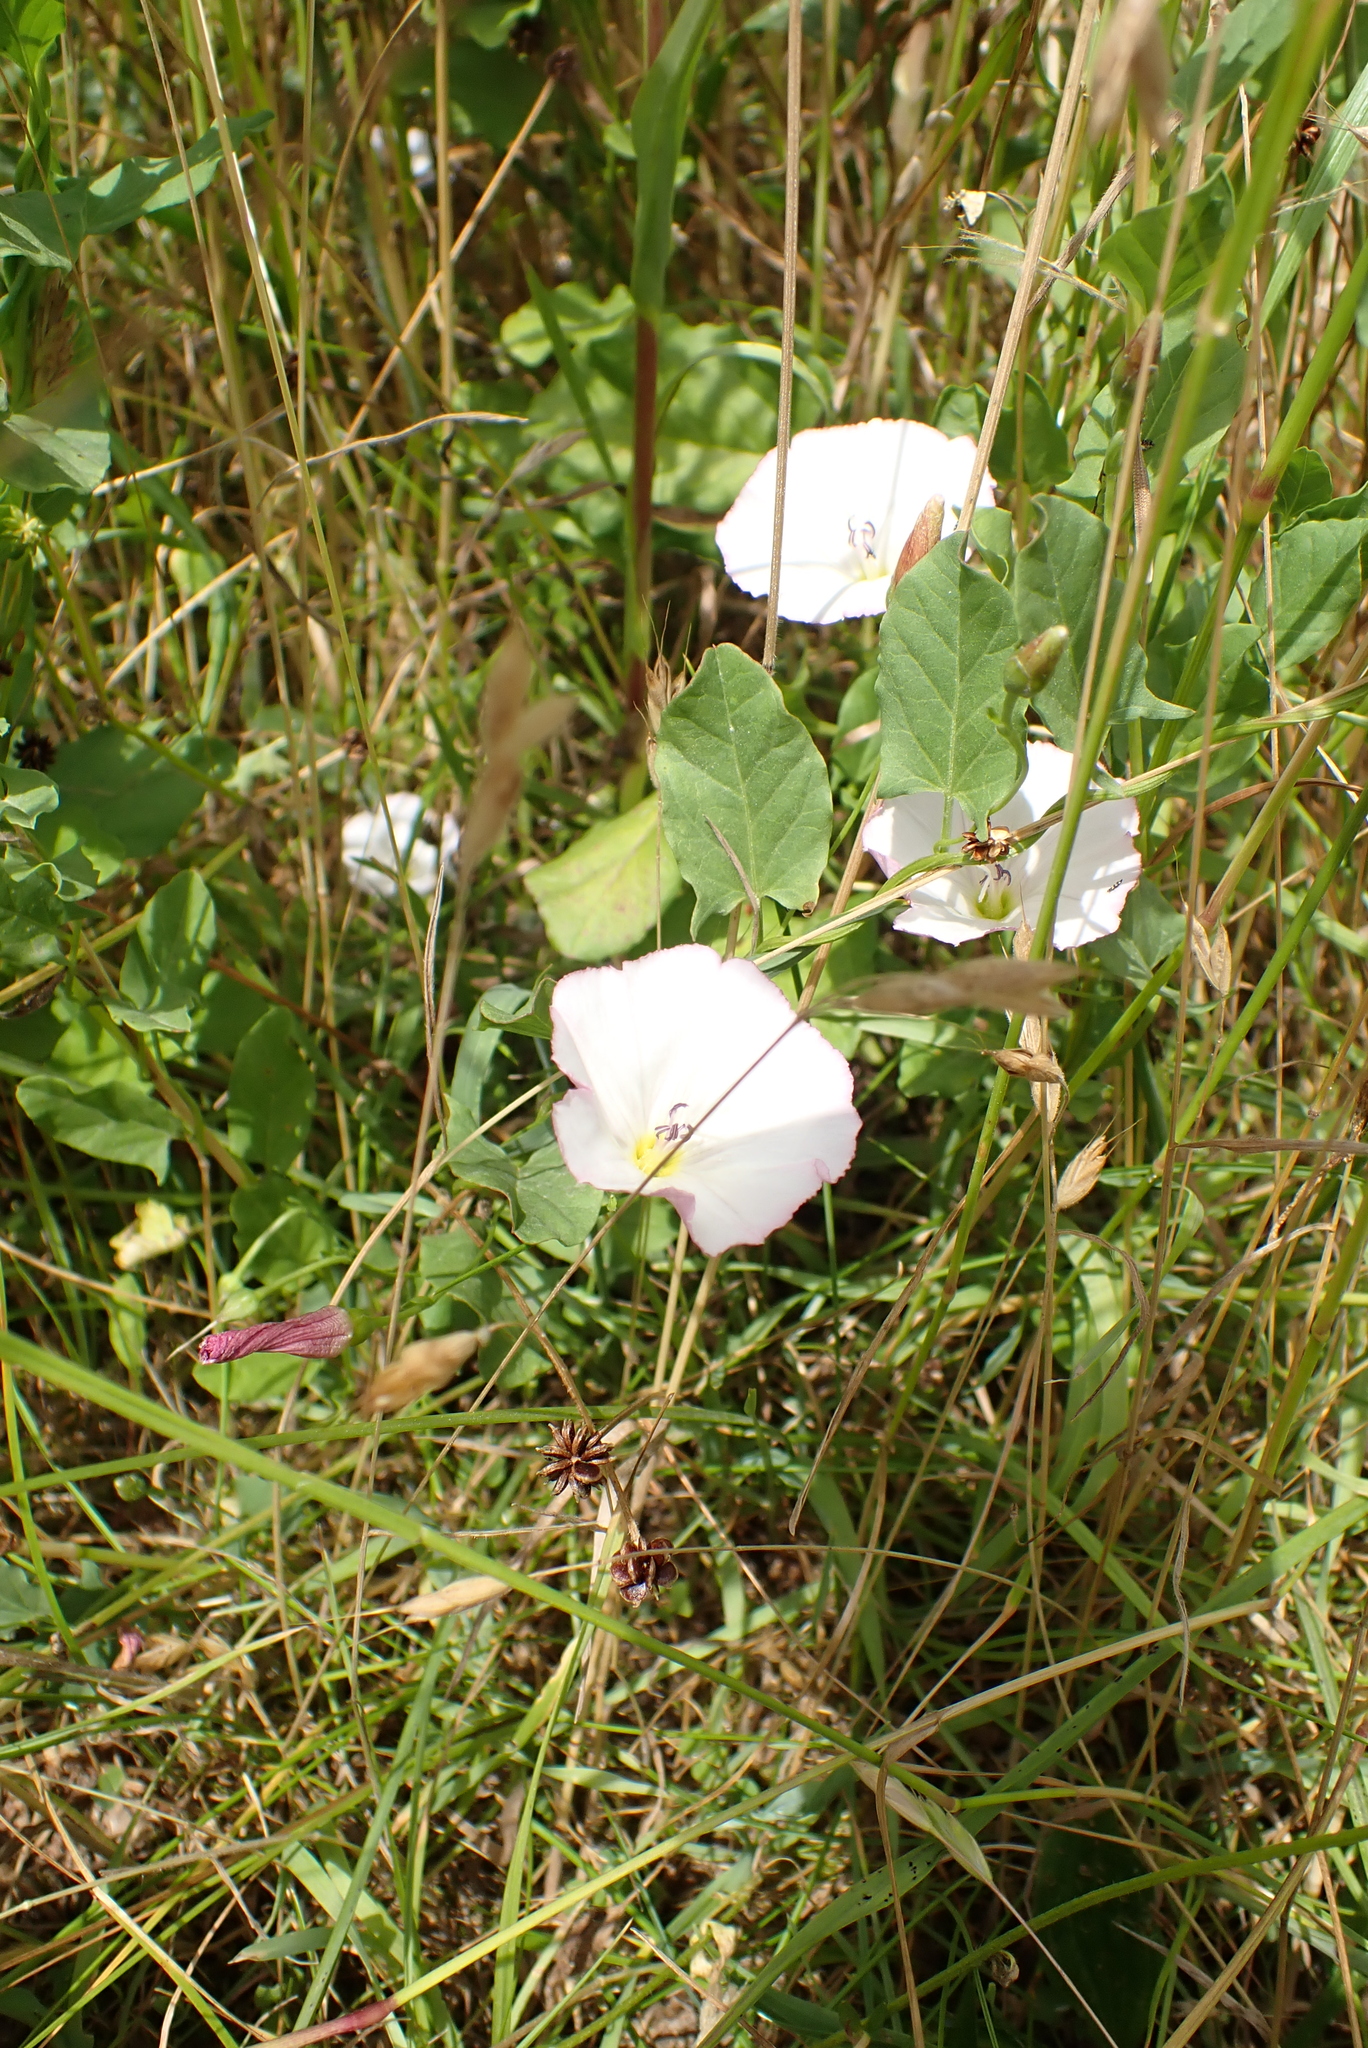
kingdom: Plantae
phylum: Tracheophyta
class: Magnoliopsida
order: Solanales
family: Convolvulaceae
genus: Convolvulus
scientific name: Convolvulus arvensis
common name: Field bindweed
